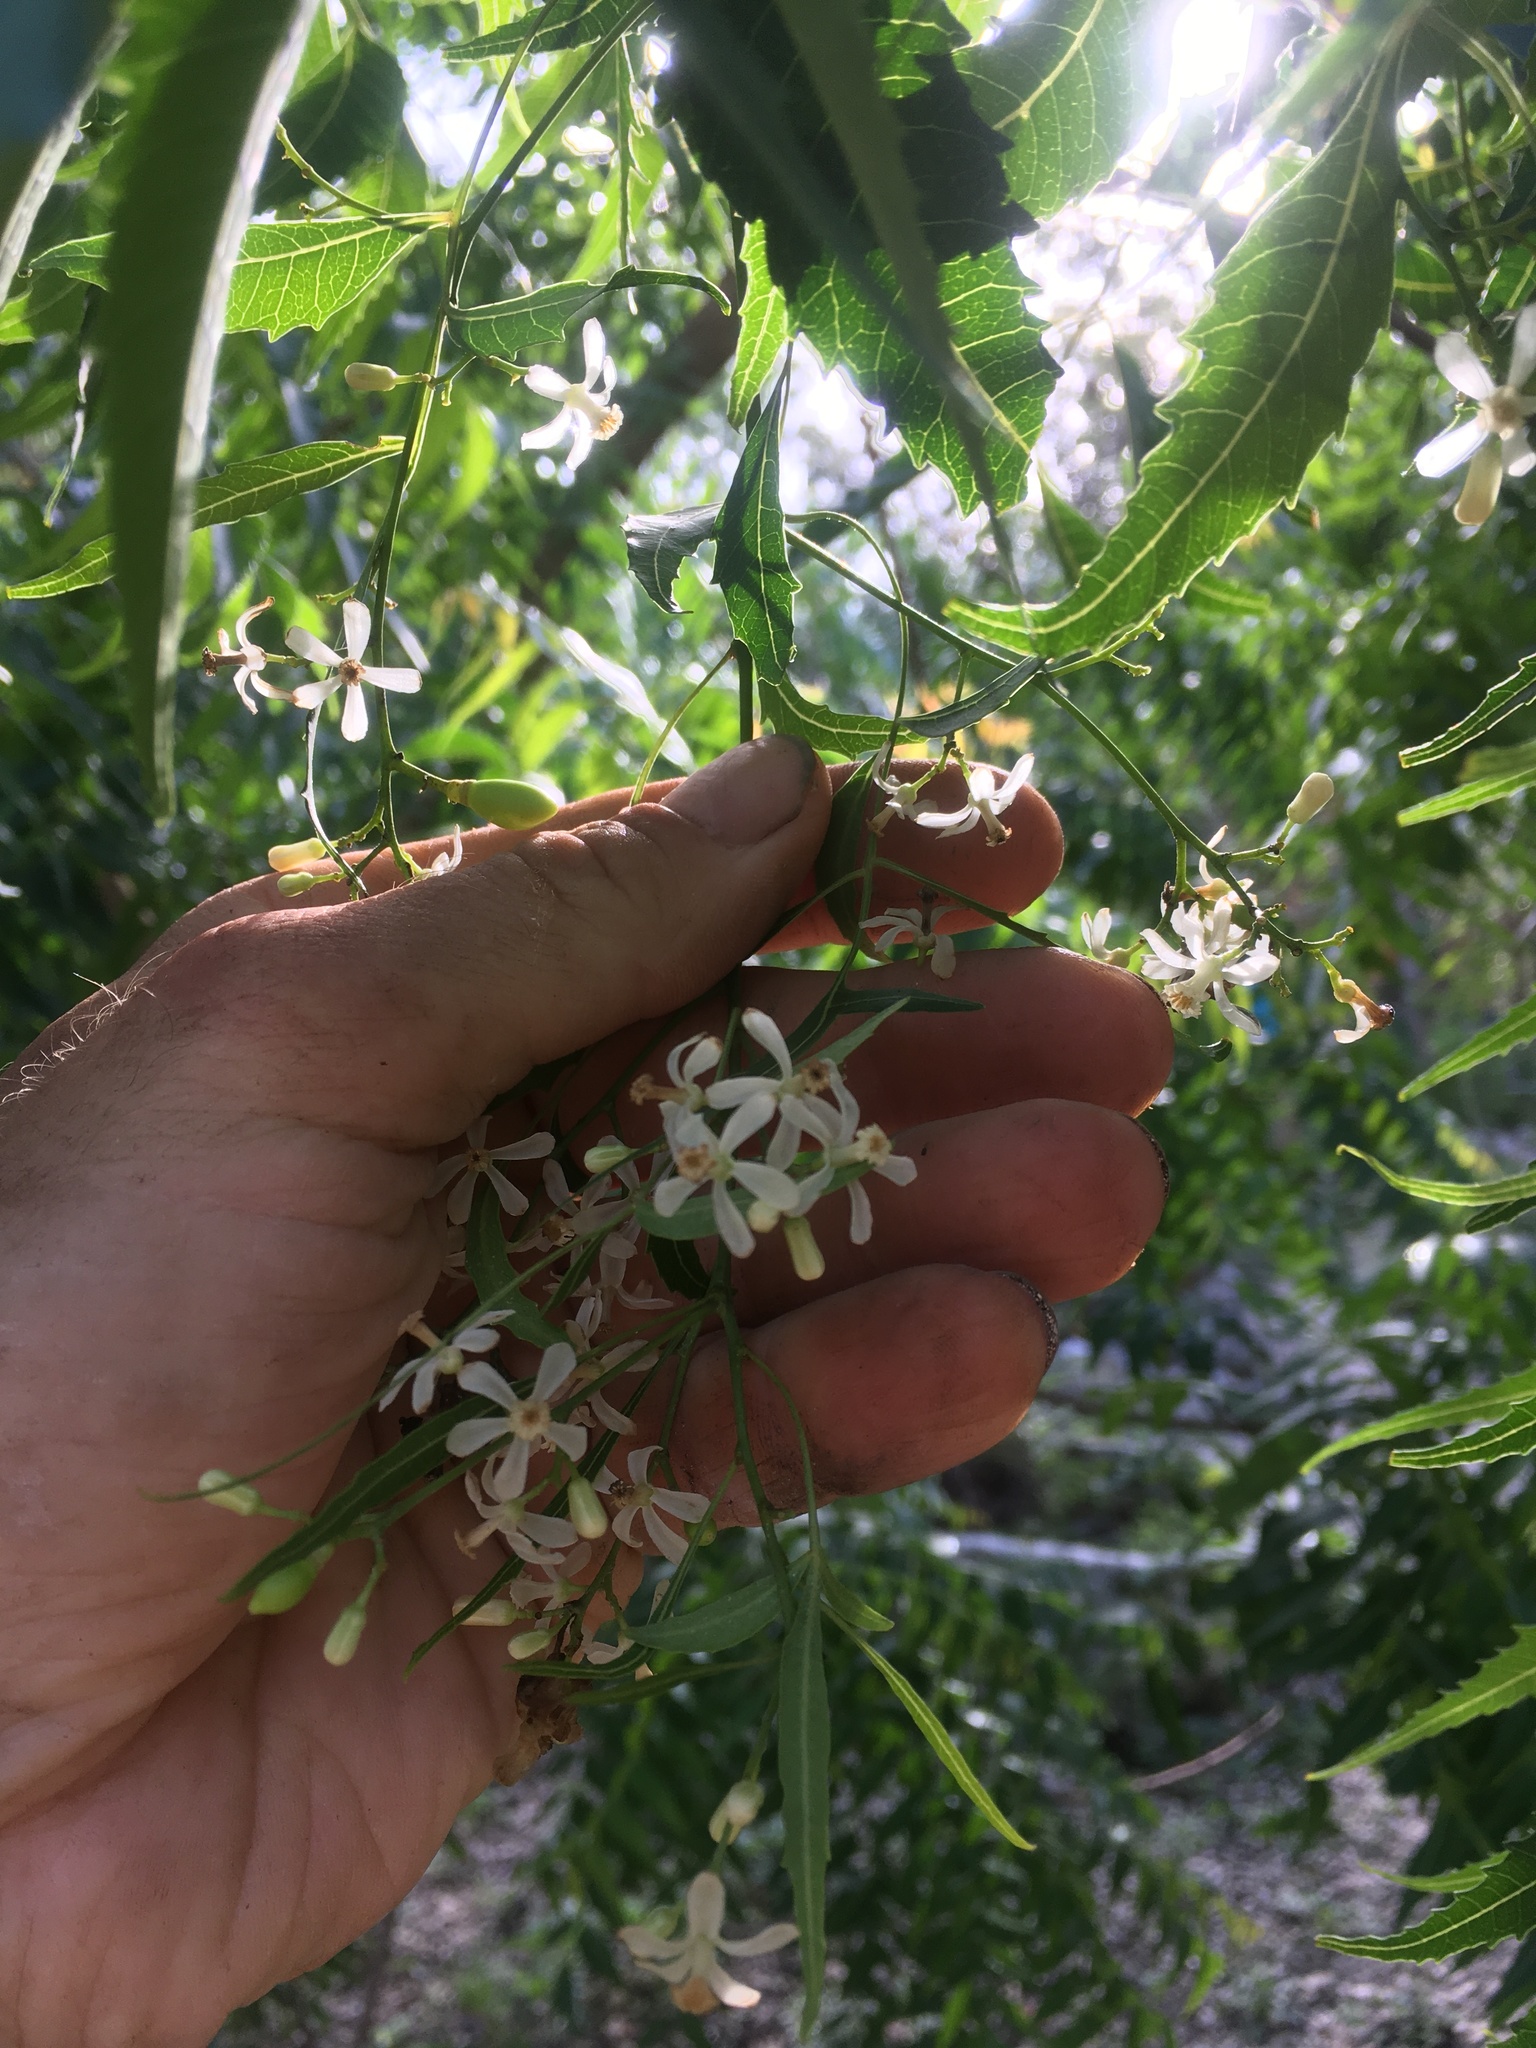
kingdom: Plantae
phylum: Tracheophyta
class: Magnoliopsida
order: Sapindales
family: Meliaceae
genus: Azadirachta
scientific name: Azadirachta indica
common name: Neem
